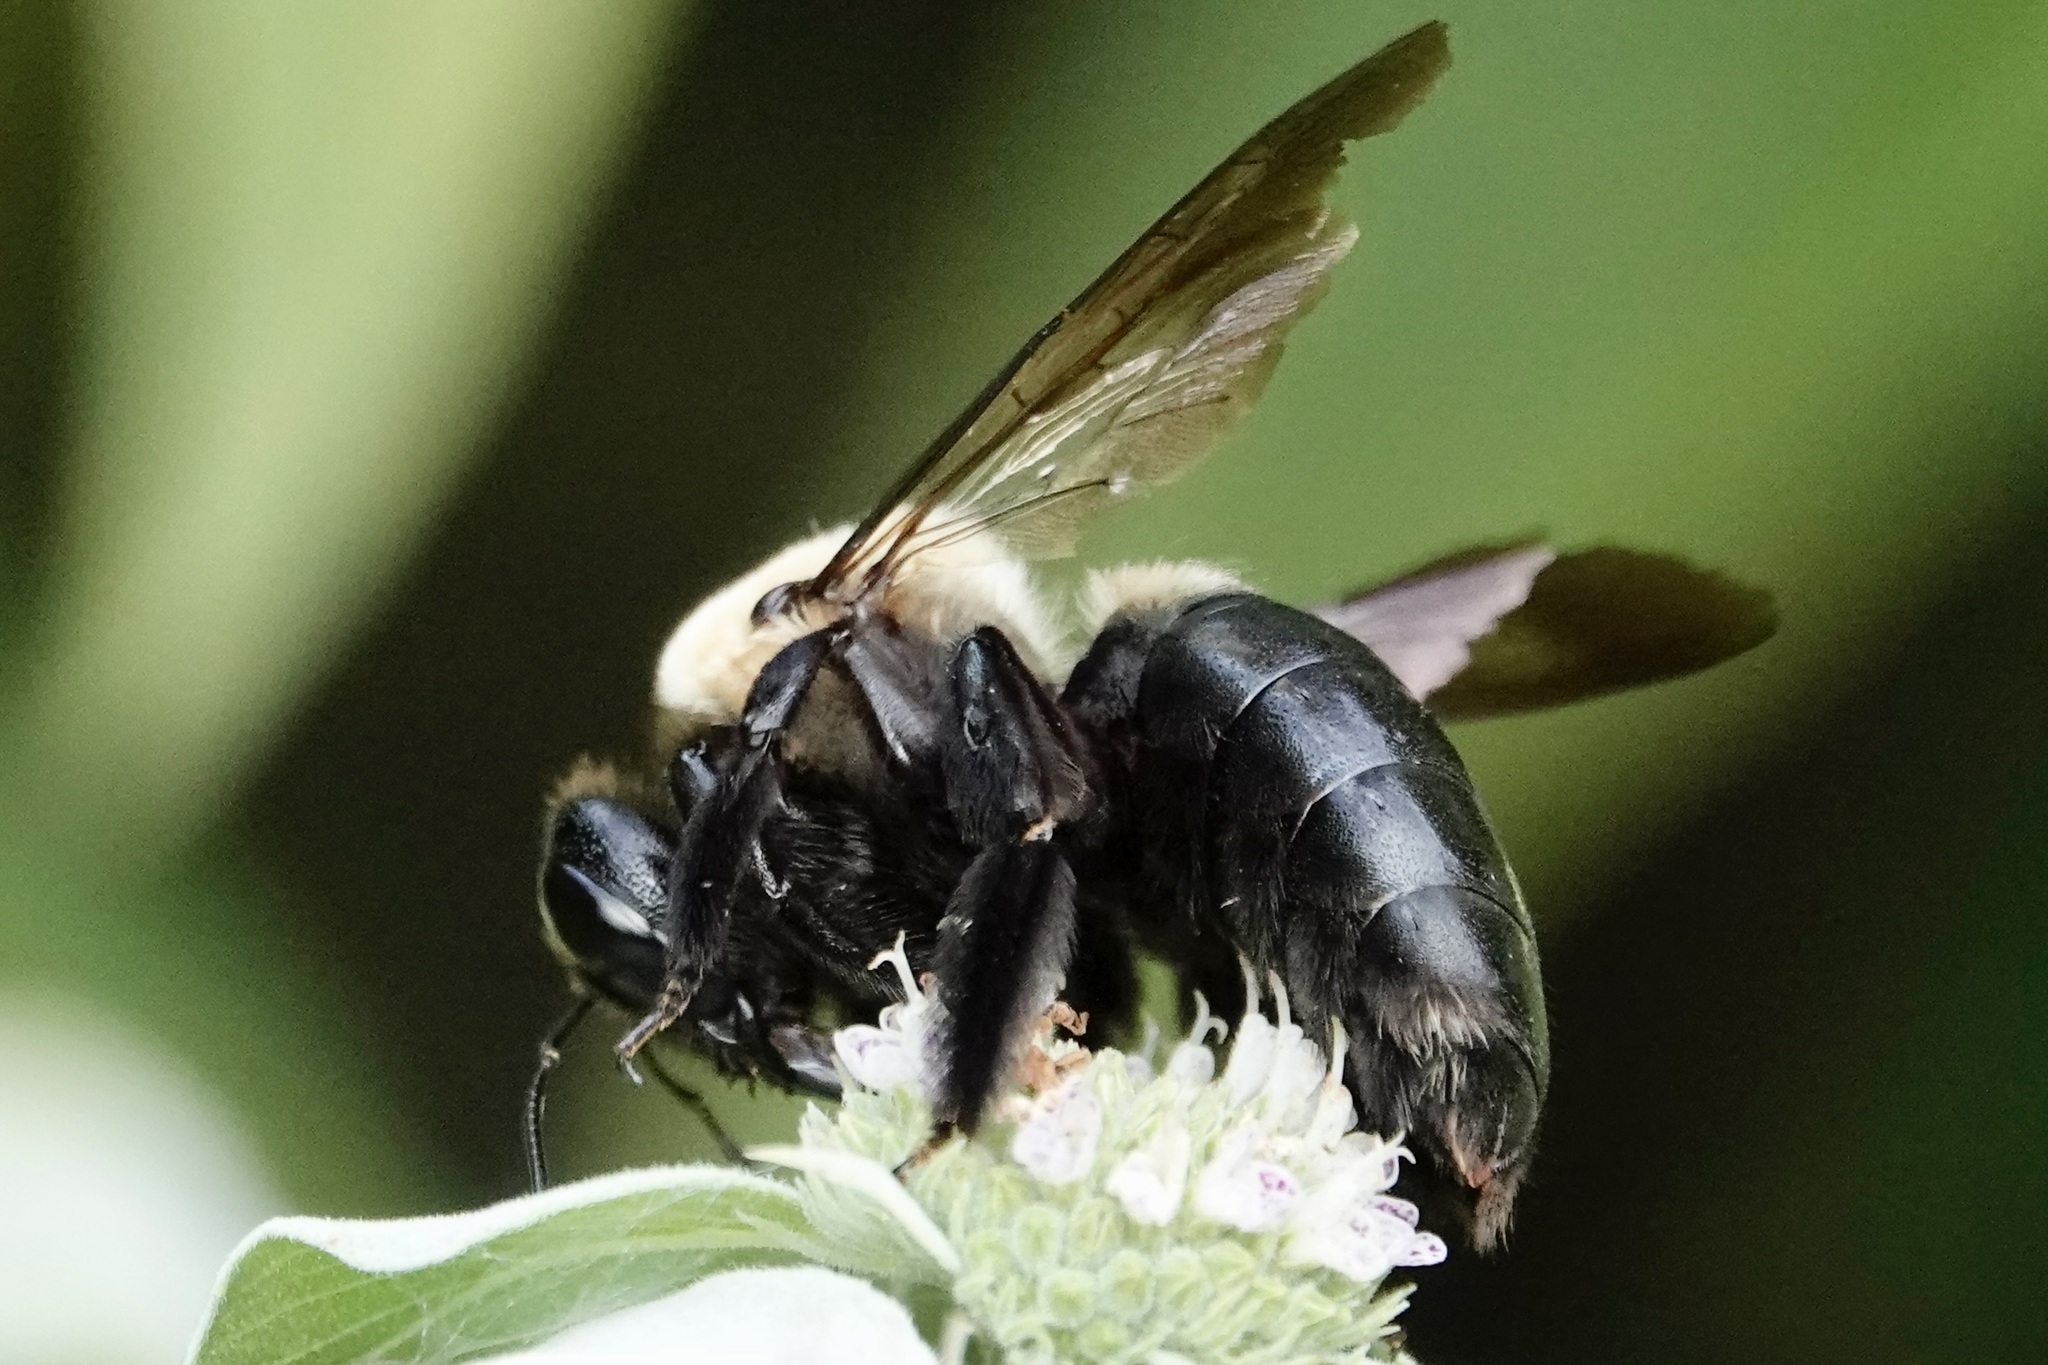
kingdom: Animalia
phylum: Arthropoda
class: Insecta
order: Hymenoptera
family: Apidae
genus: Xylocopa
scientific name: Xylocopa virginica
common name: Carpenter bee
